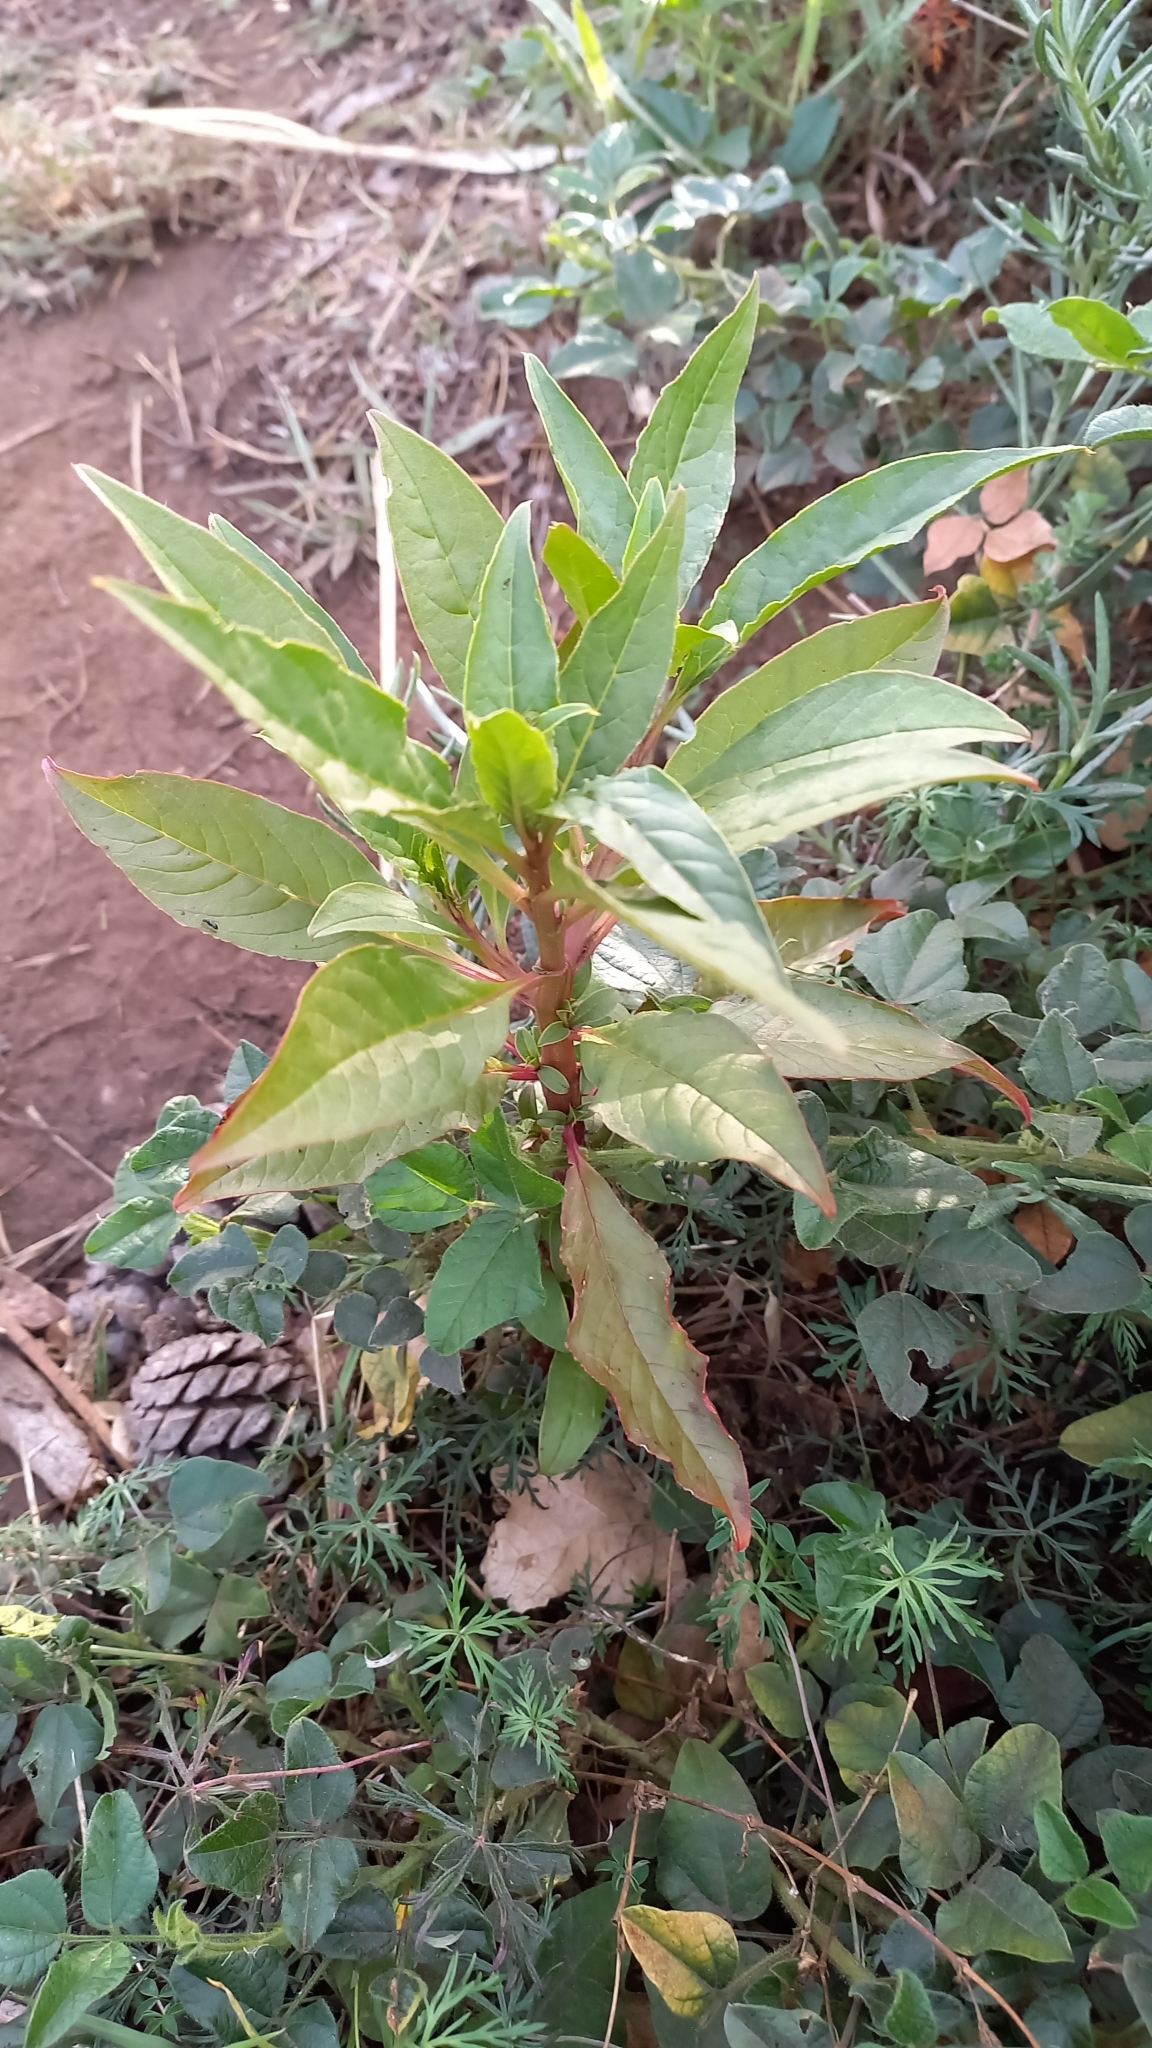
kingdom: Plantae
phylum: Tracheophyta
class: Magnoliopsida
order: Caryophyllales
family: Phytolaccaceae
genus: Phytolacca
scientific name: Phytolacca icosandra
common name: Button pokeweed
